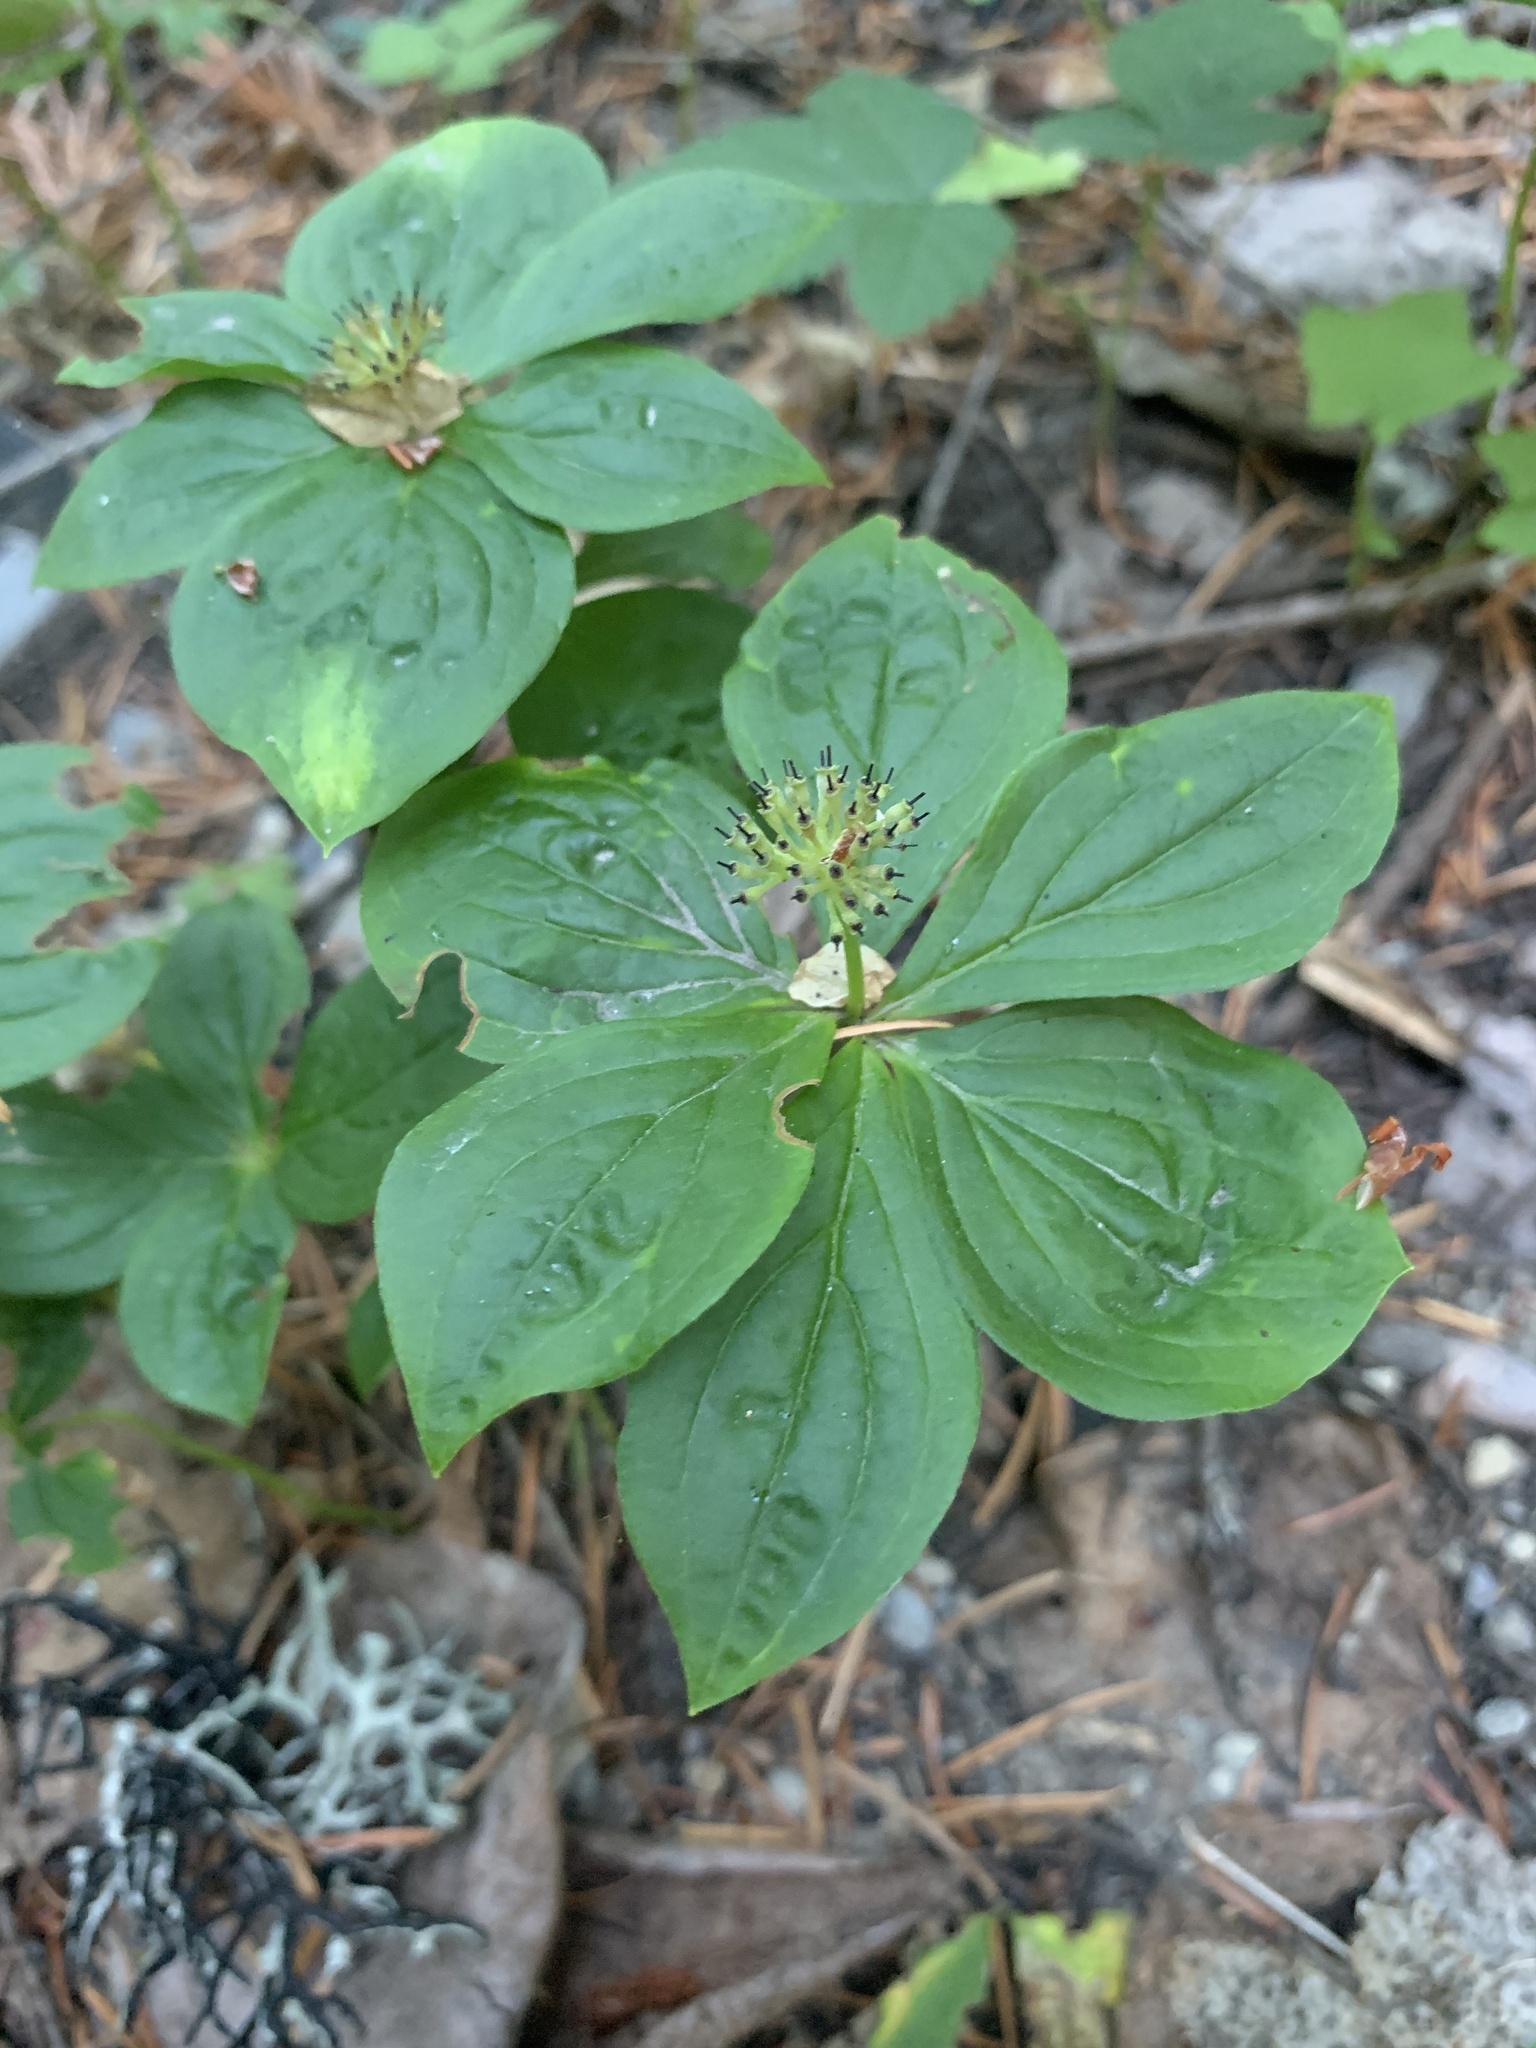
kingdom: Plantae
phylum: Tracheophyta
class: Magnoliopsida
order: Cornales
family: Cornaceae
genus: Cornus
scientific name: Cornus unalaschkensis
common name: Alaska bunchberry
